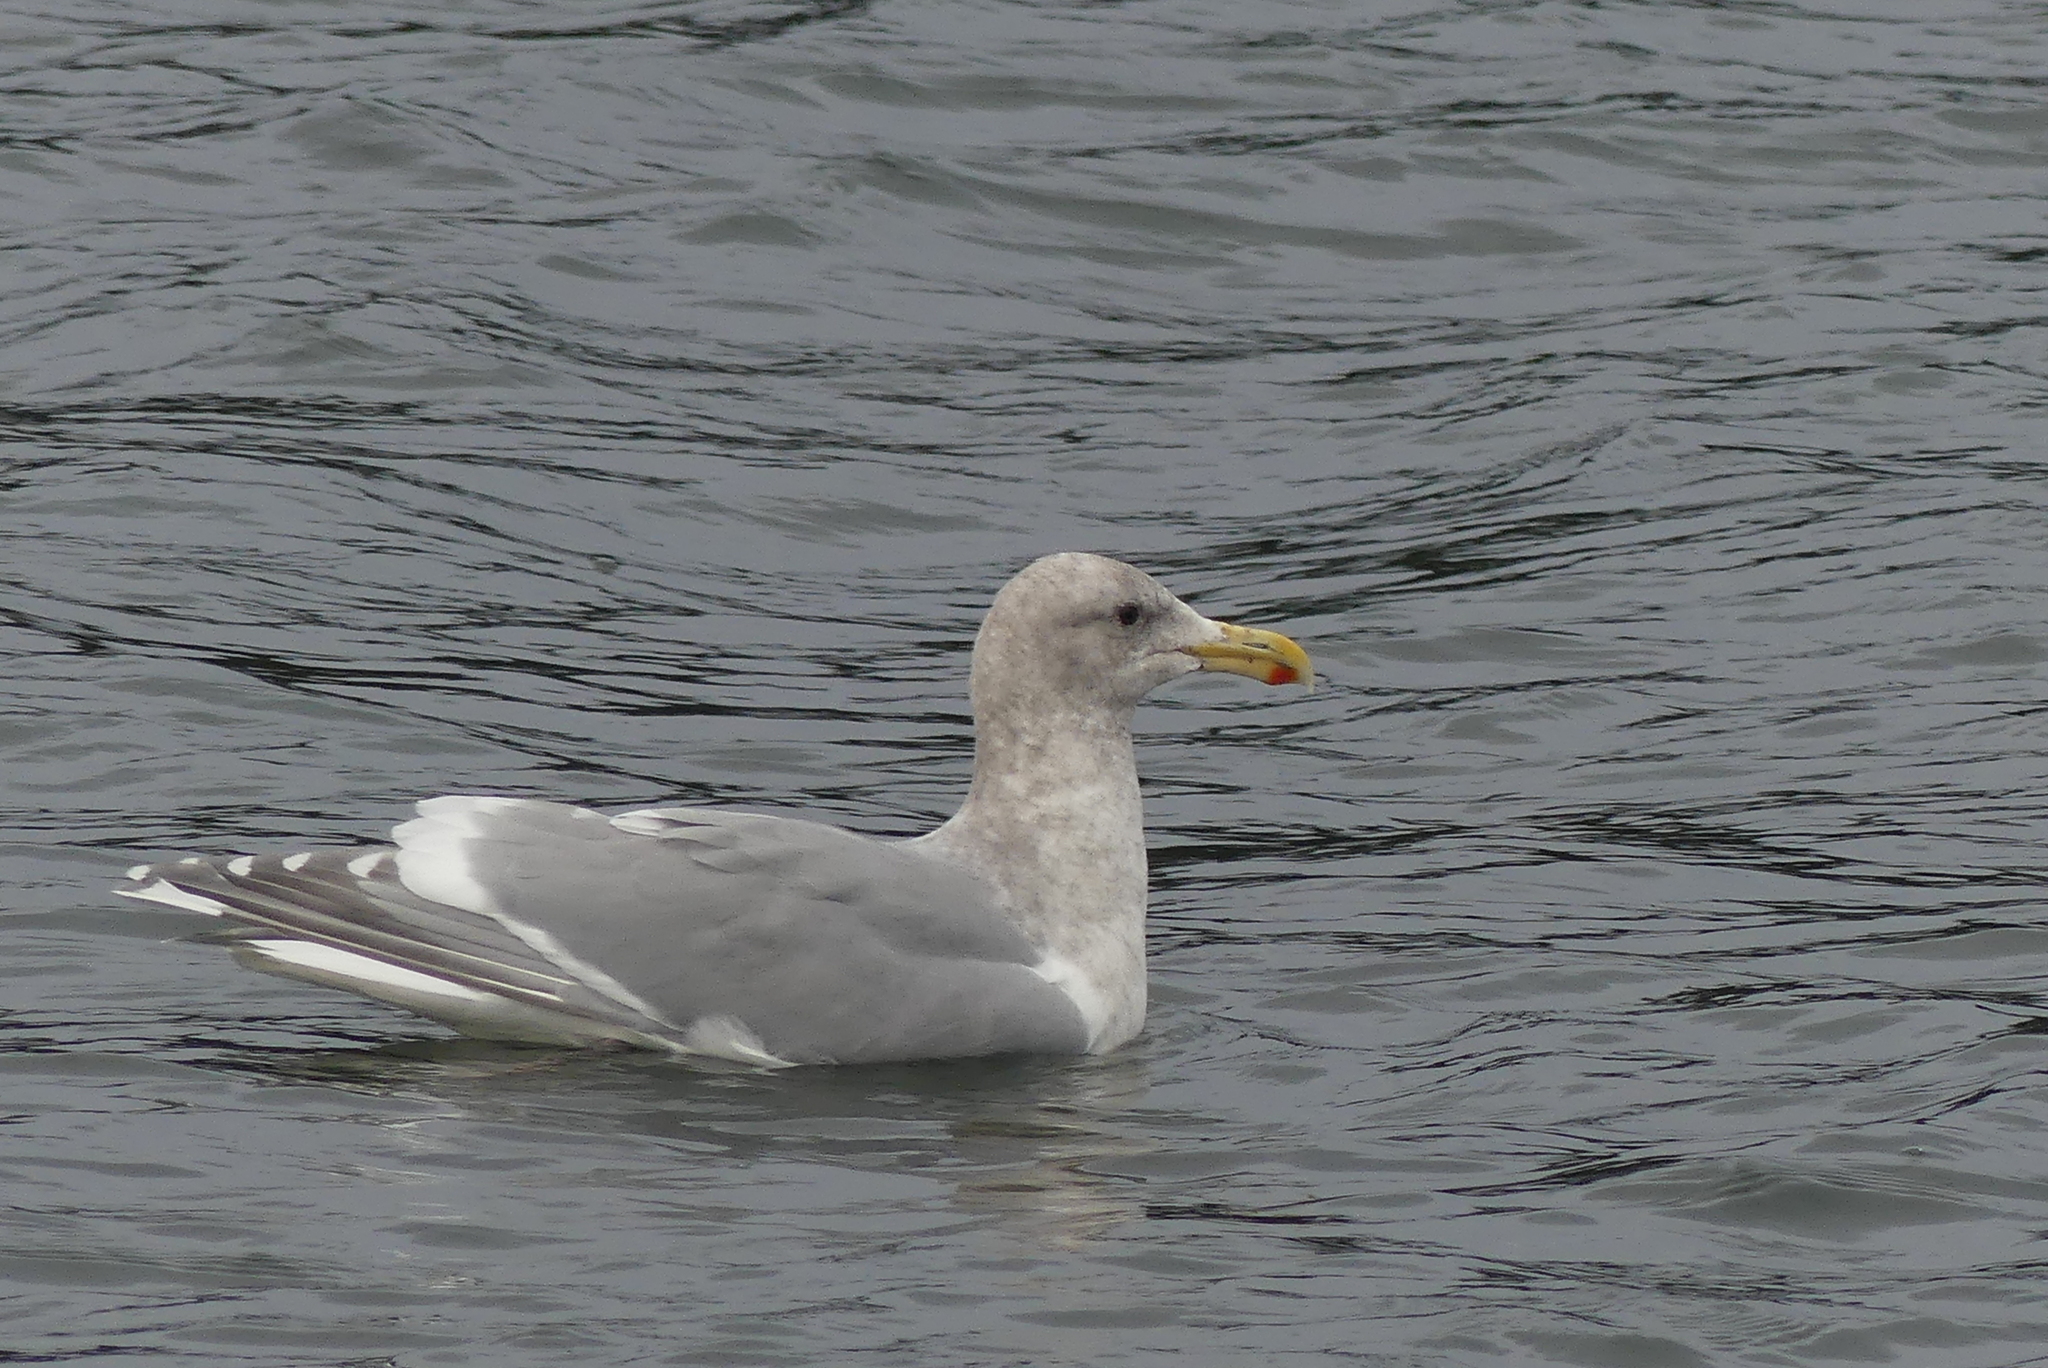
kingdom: Animalia
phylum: Chordata
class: Aves
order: Charadriiformes
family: Laridae
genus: Larus
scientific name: Larus glaucescens
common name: Glaucous-winged gull
